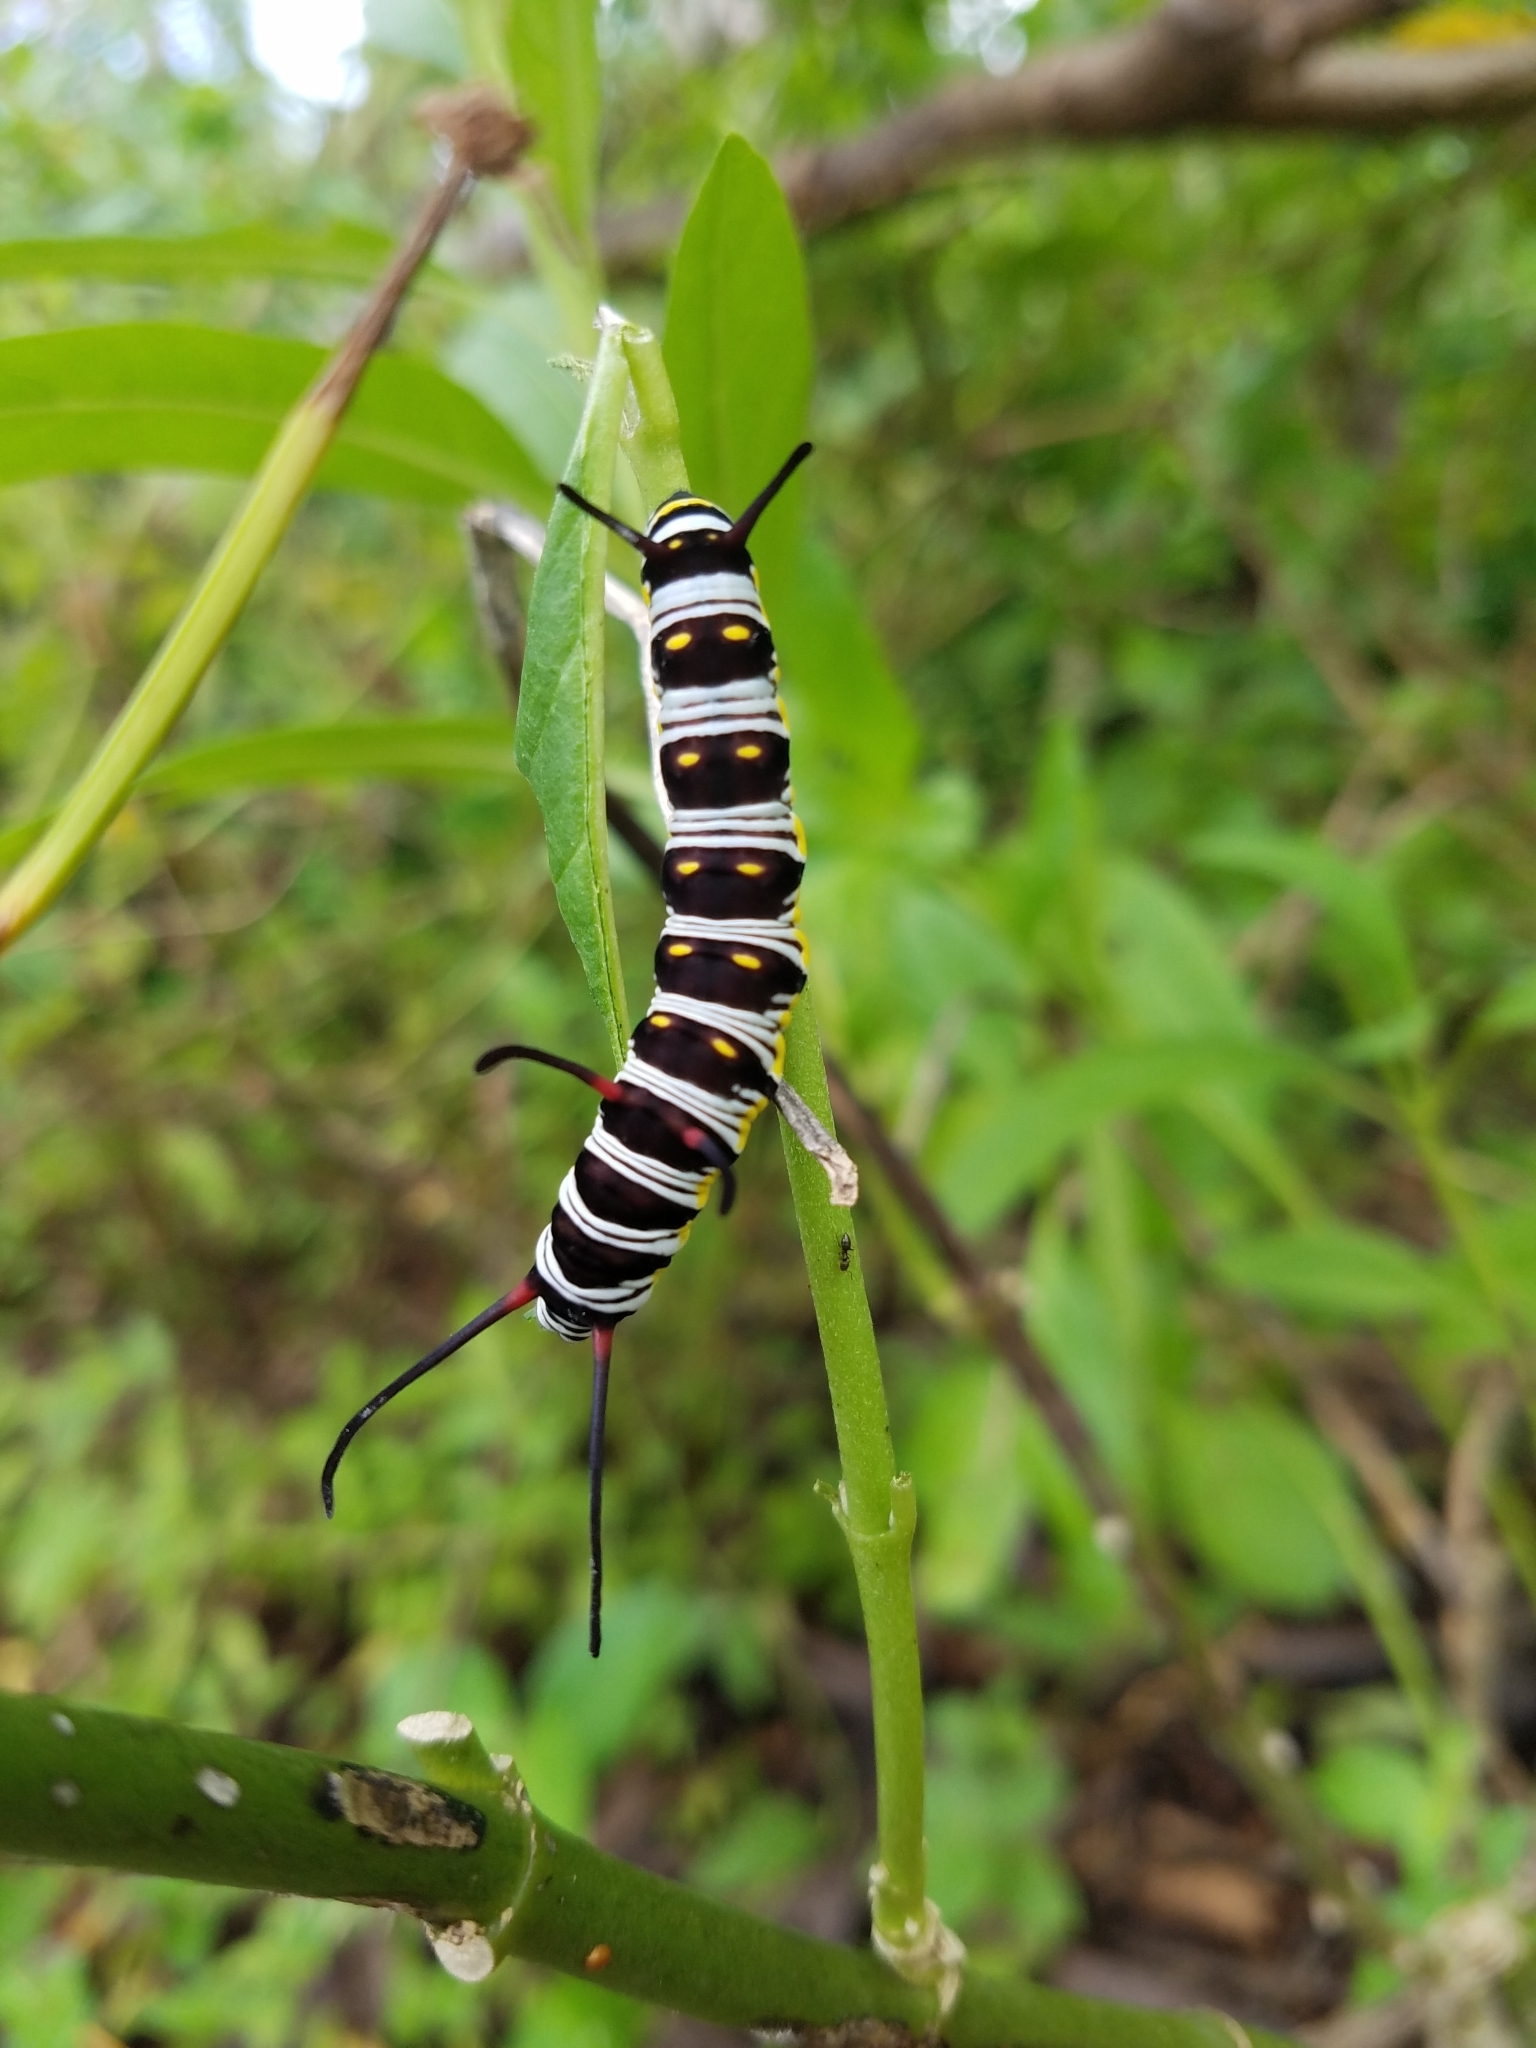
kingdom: Animalia
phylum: Arthropoda
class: Insecta
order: Lepidoptera
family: Nymphalidae
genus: Danaus
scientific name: Danaus gilippus
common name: Queen
